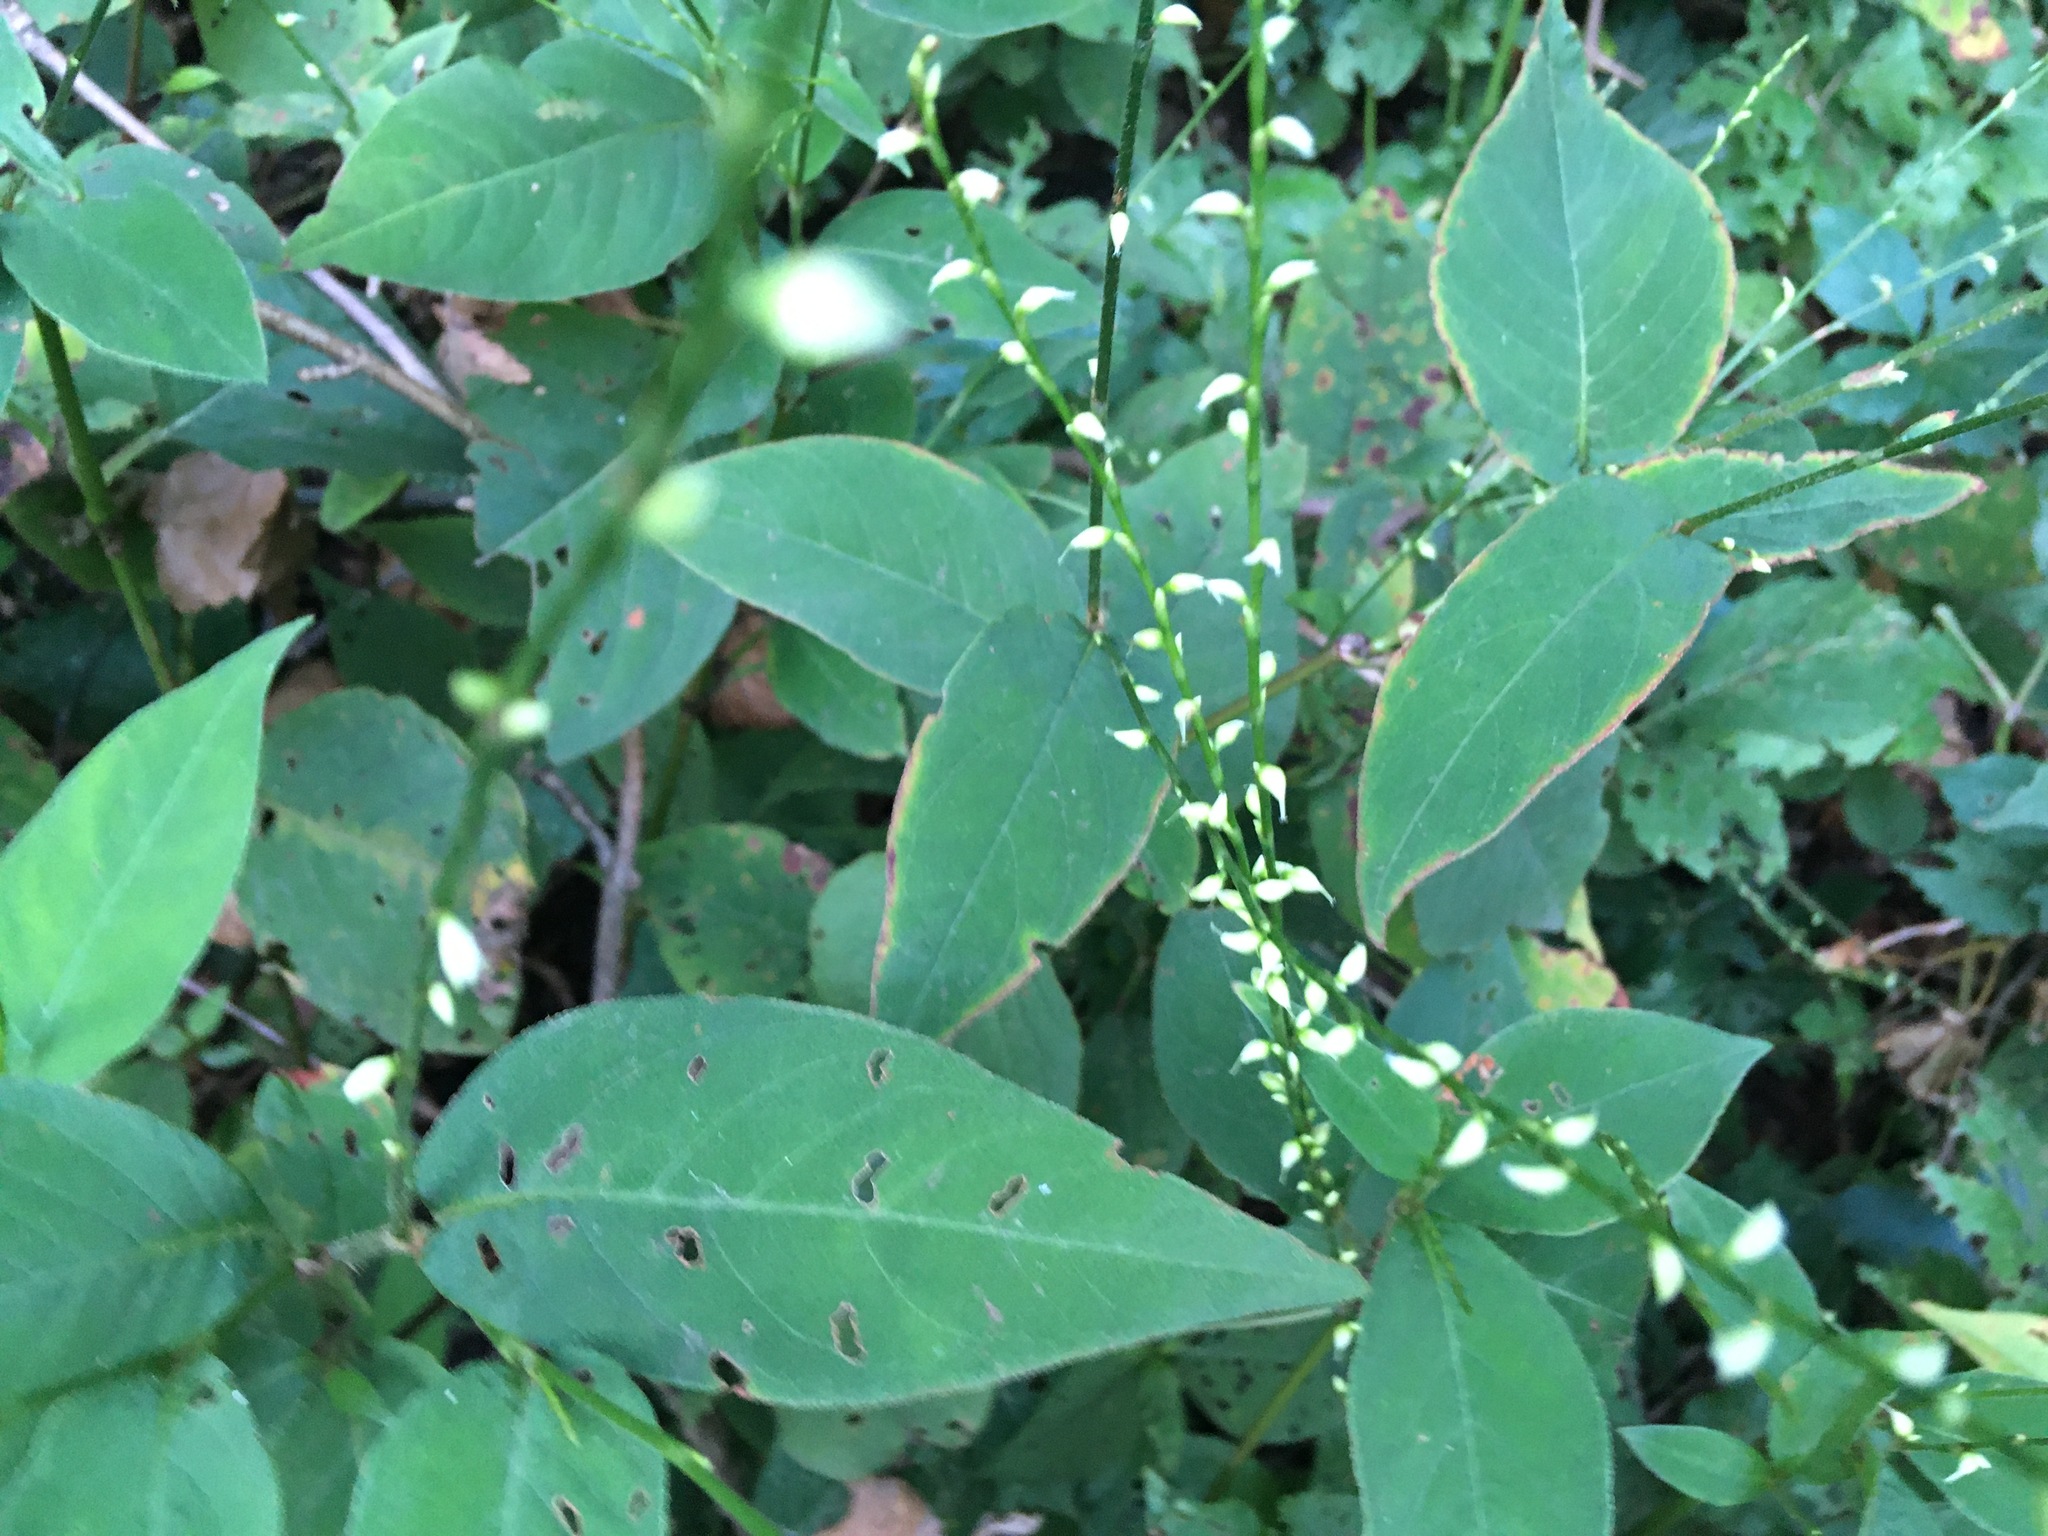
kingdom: Plantae
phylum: Tracheophyta
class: Magnoliopsida
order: Caryophyllales
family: Polygonaceae
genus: Persicaria
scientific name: Persicaria virginiana
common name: Jumpseed
